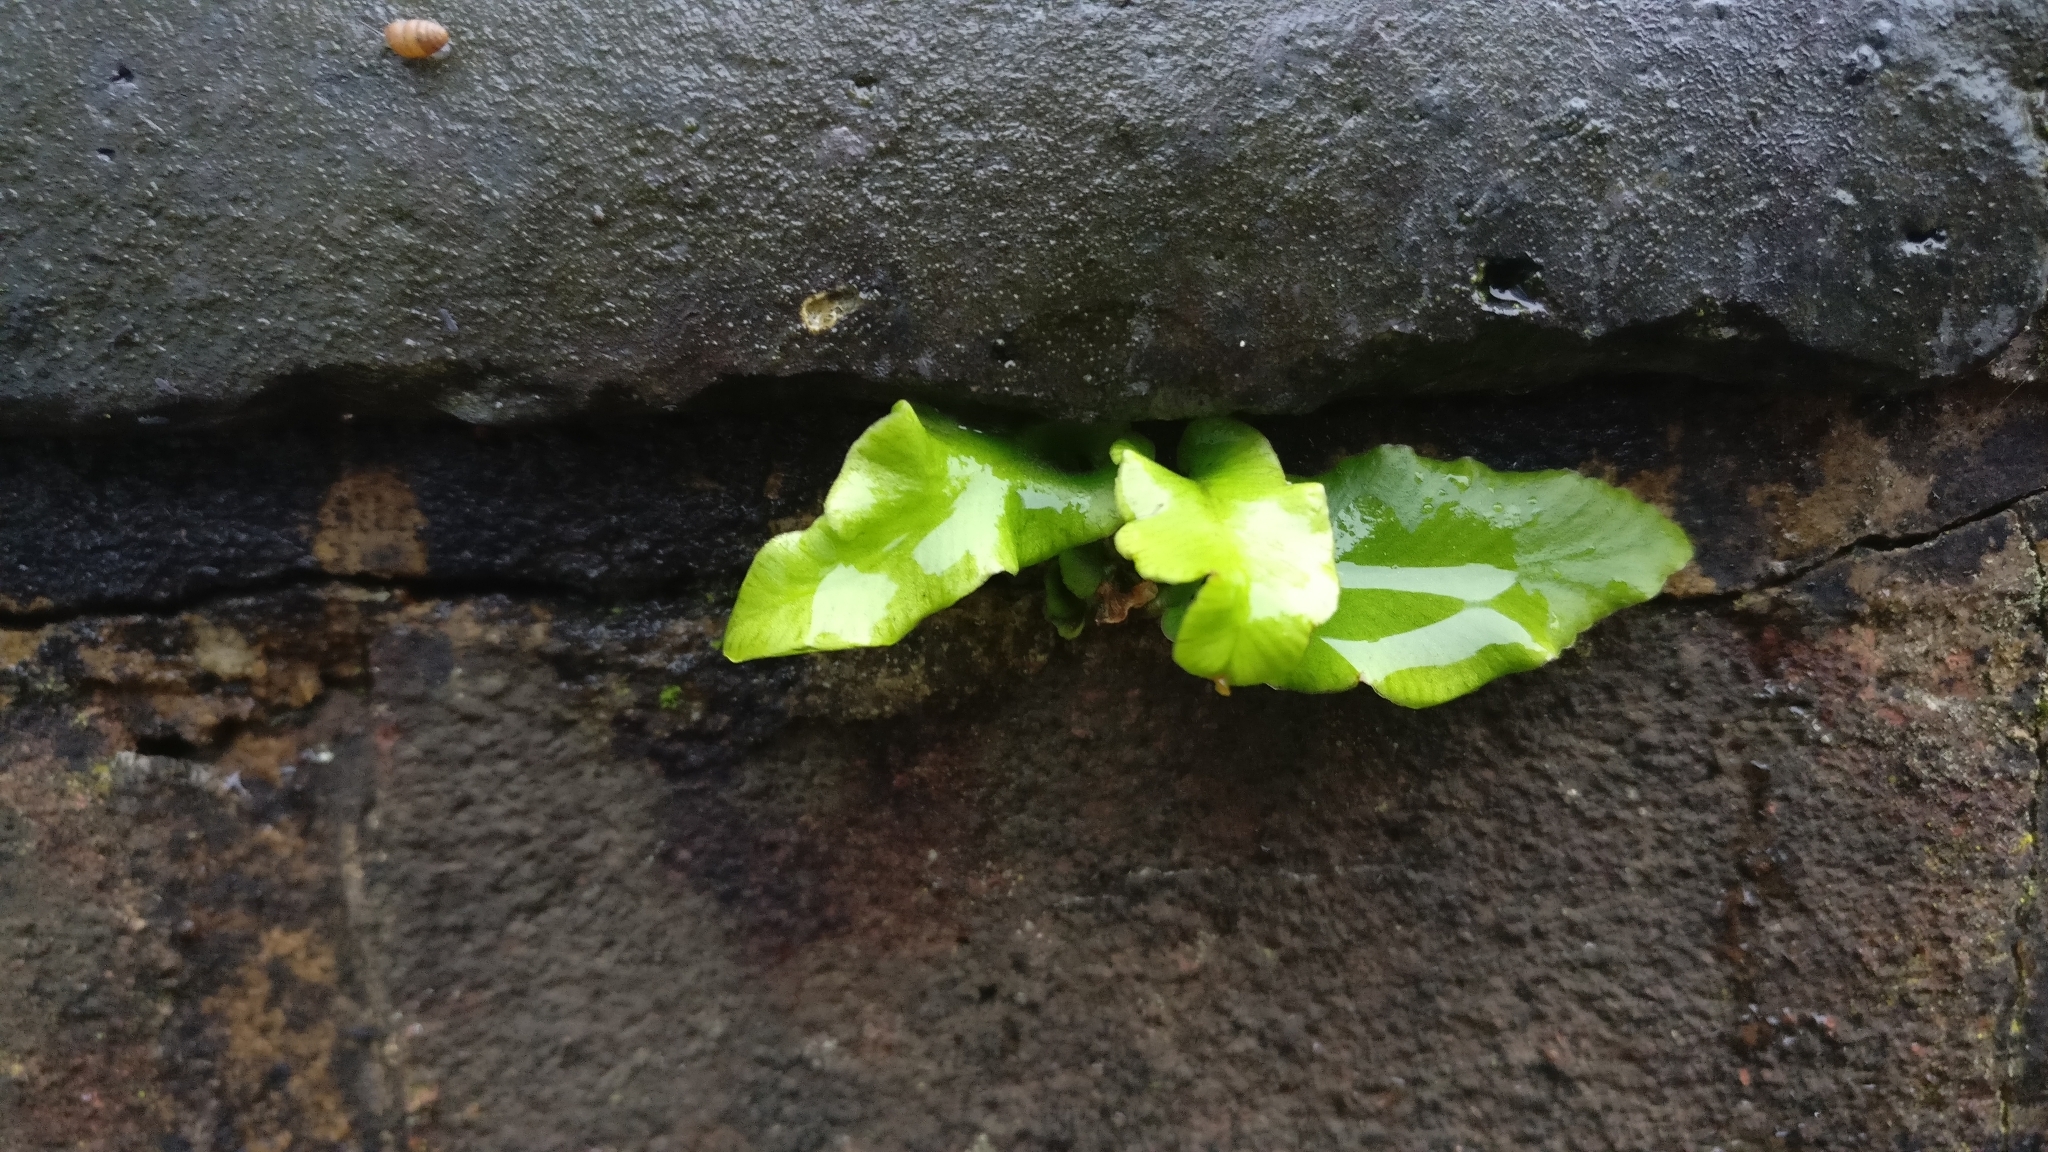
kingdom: Plantae
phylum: Tracheophyta
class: Polypodiopsida
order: Polypodiales
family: Aspleniaceae
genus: Asplenium
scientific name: Asplenium scolopendrium
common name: Hart's-tongue fern
